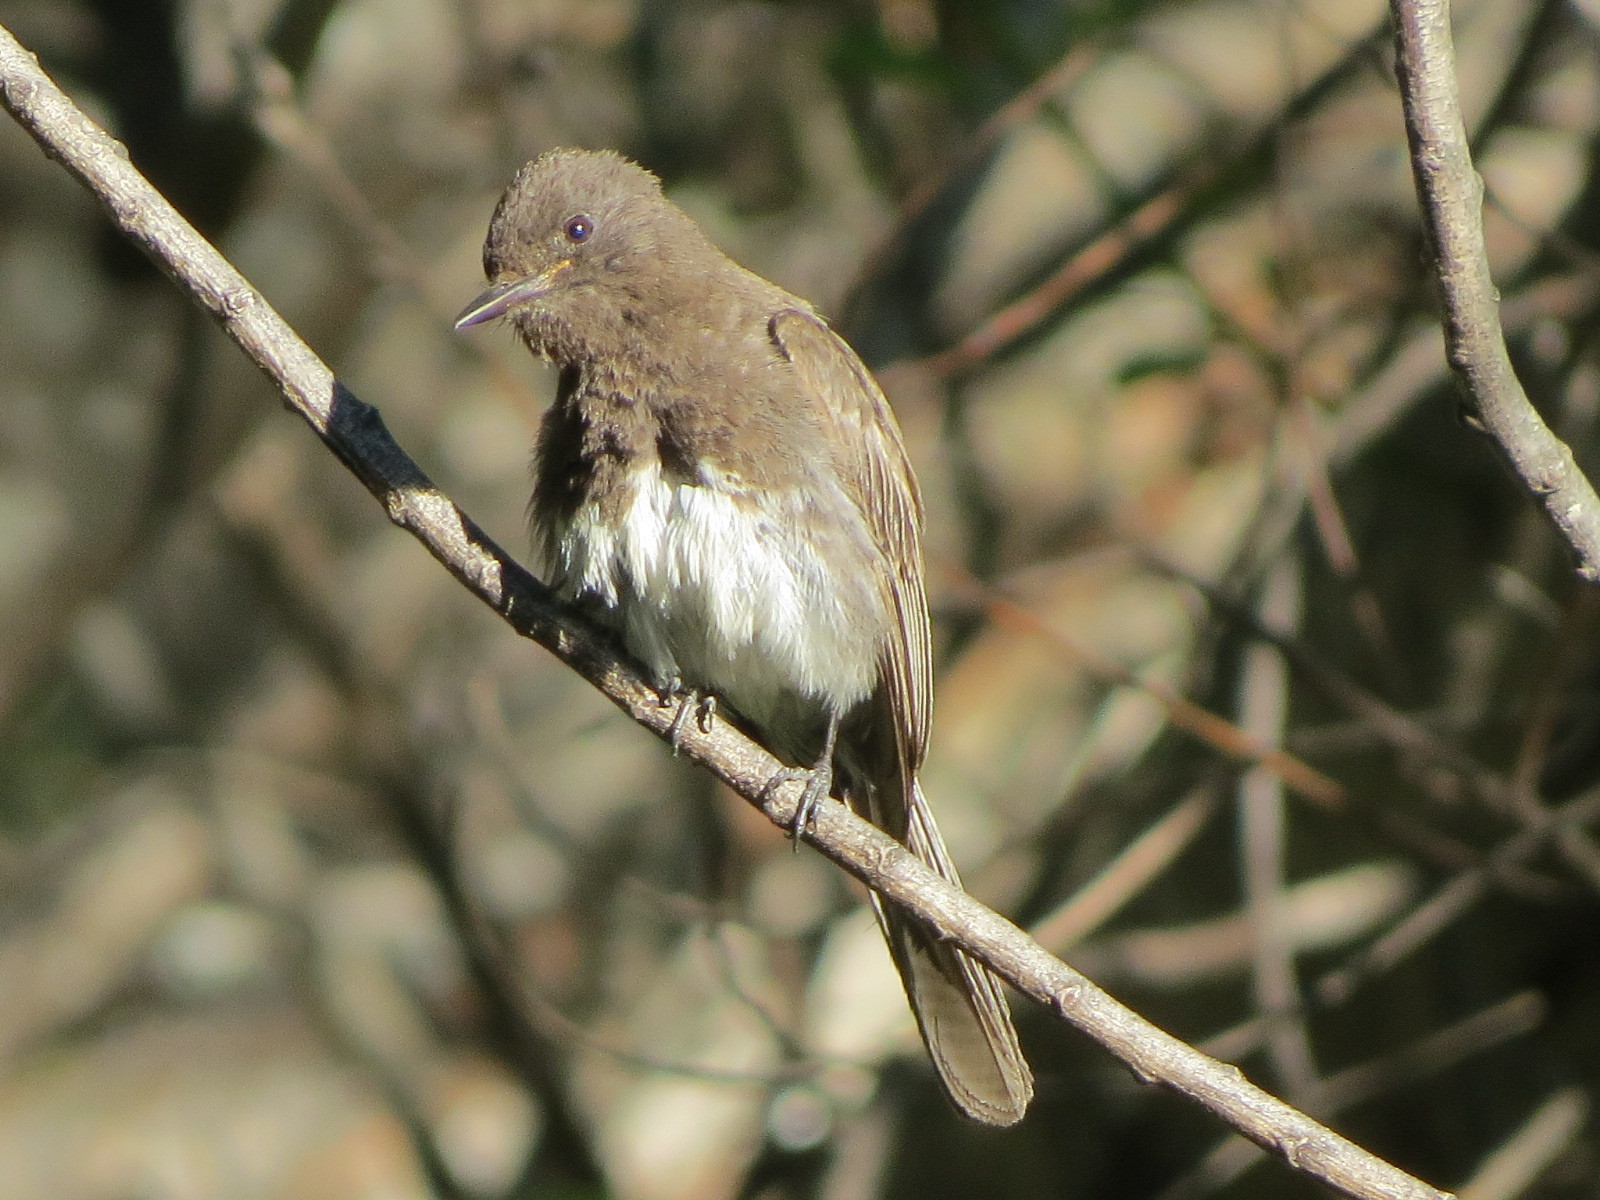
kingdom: Animalia
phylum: Chordata
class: Aves
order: Passeriformes
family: Tyrannidae
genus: Sayornis
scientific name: Sayornis nigricans
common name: Black phoebe
